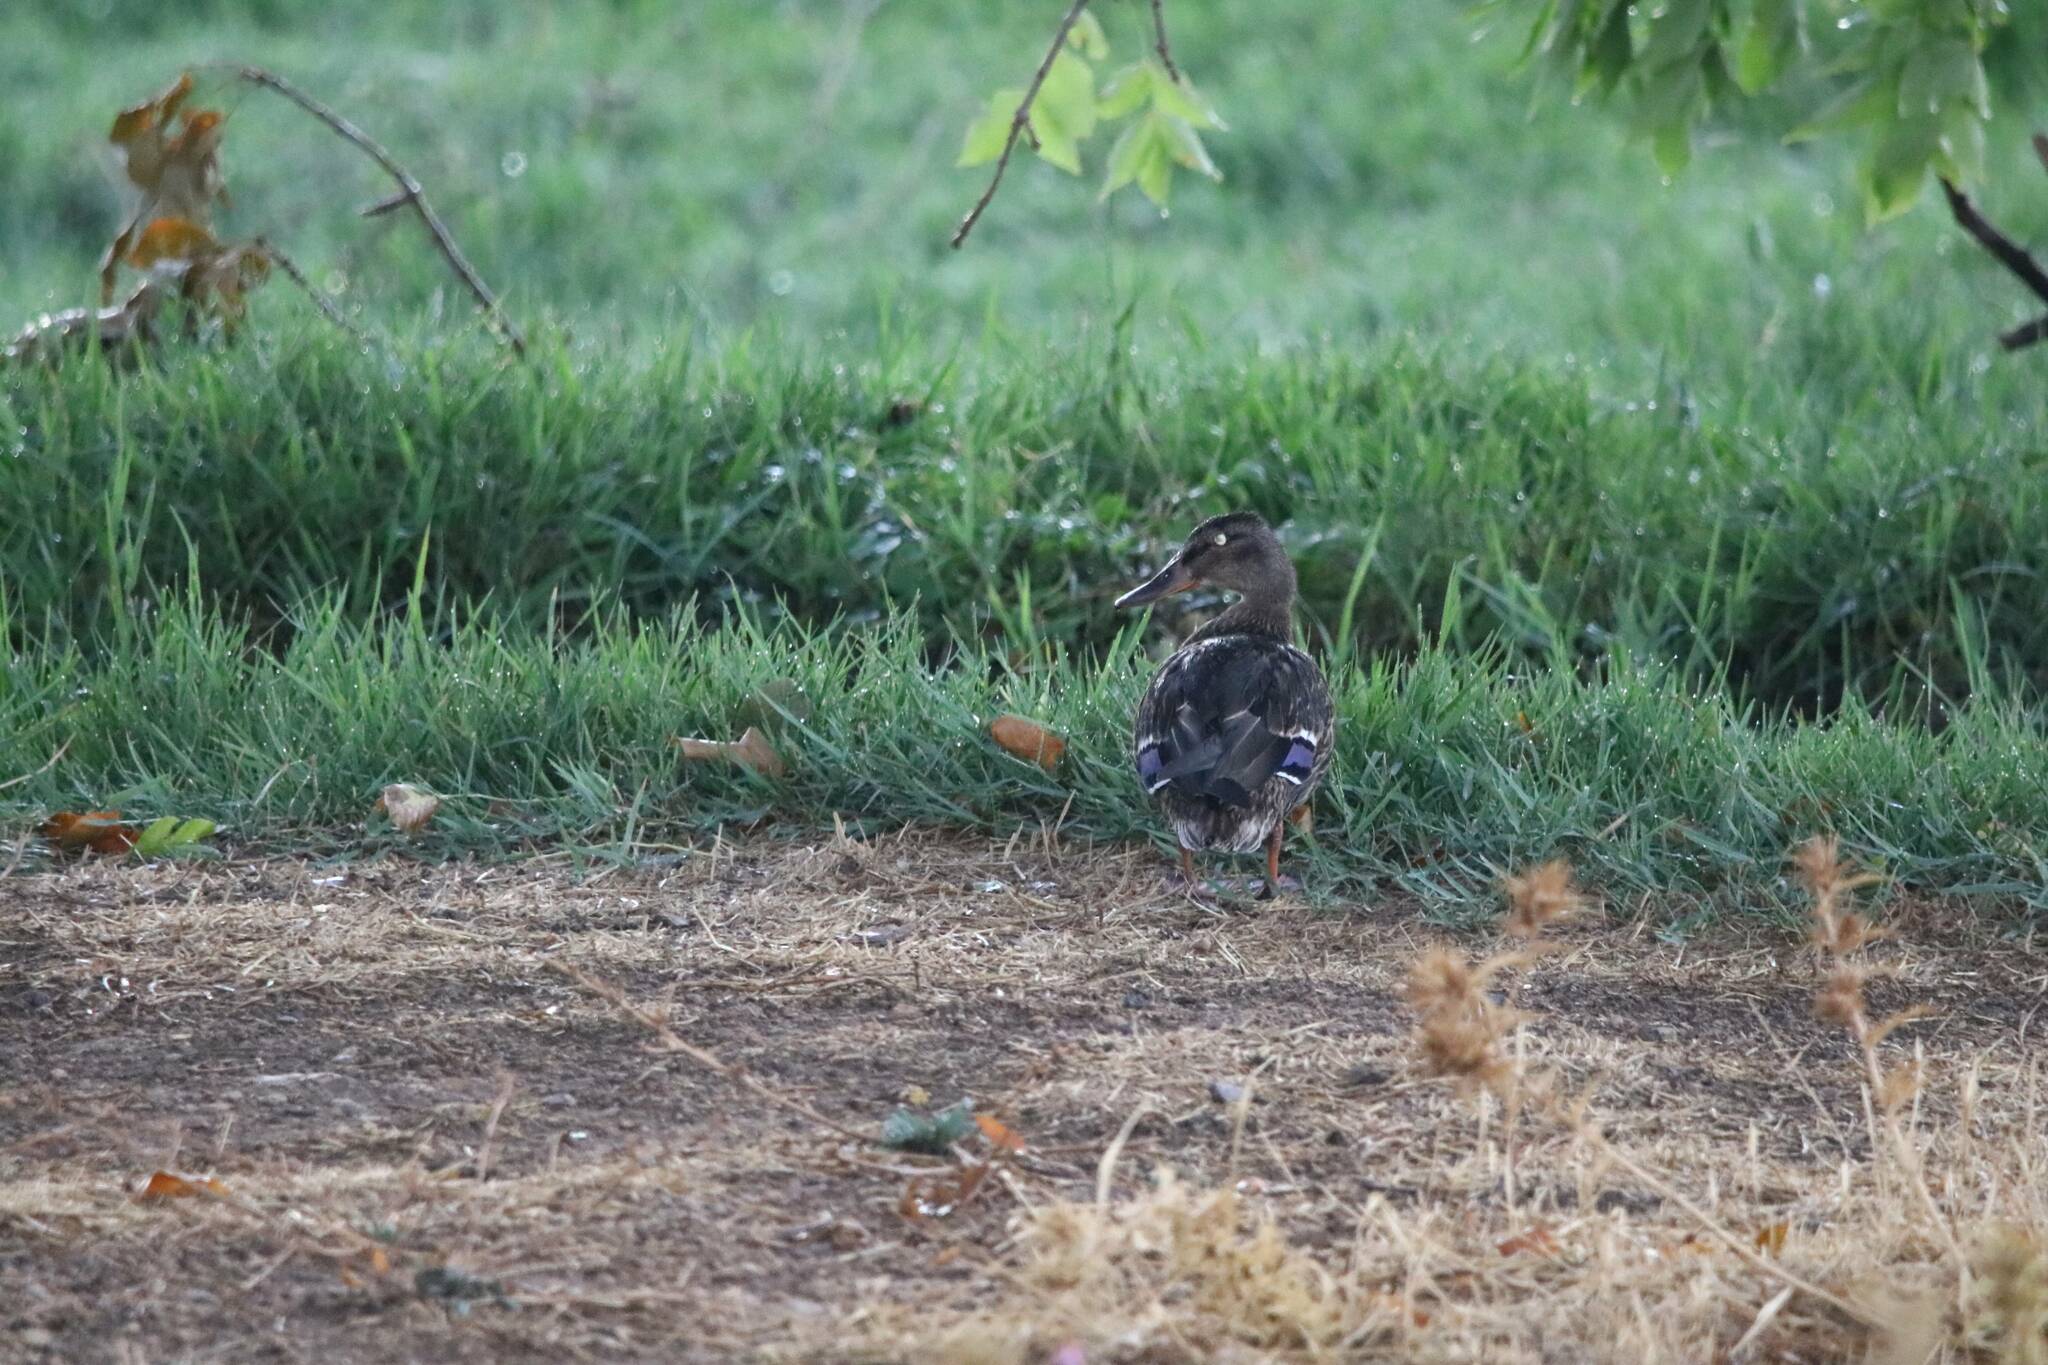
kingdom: Animalia
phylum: Chordata
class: Aves
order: Anseriformes
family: Anatidae
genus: Anas
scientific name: Anas platyrhynchos
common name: Mallard
